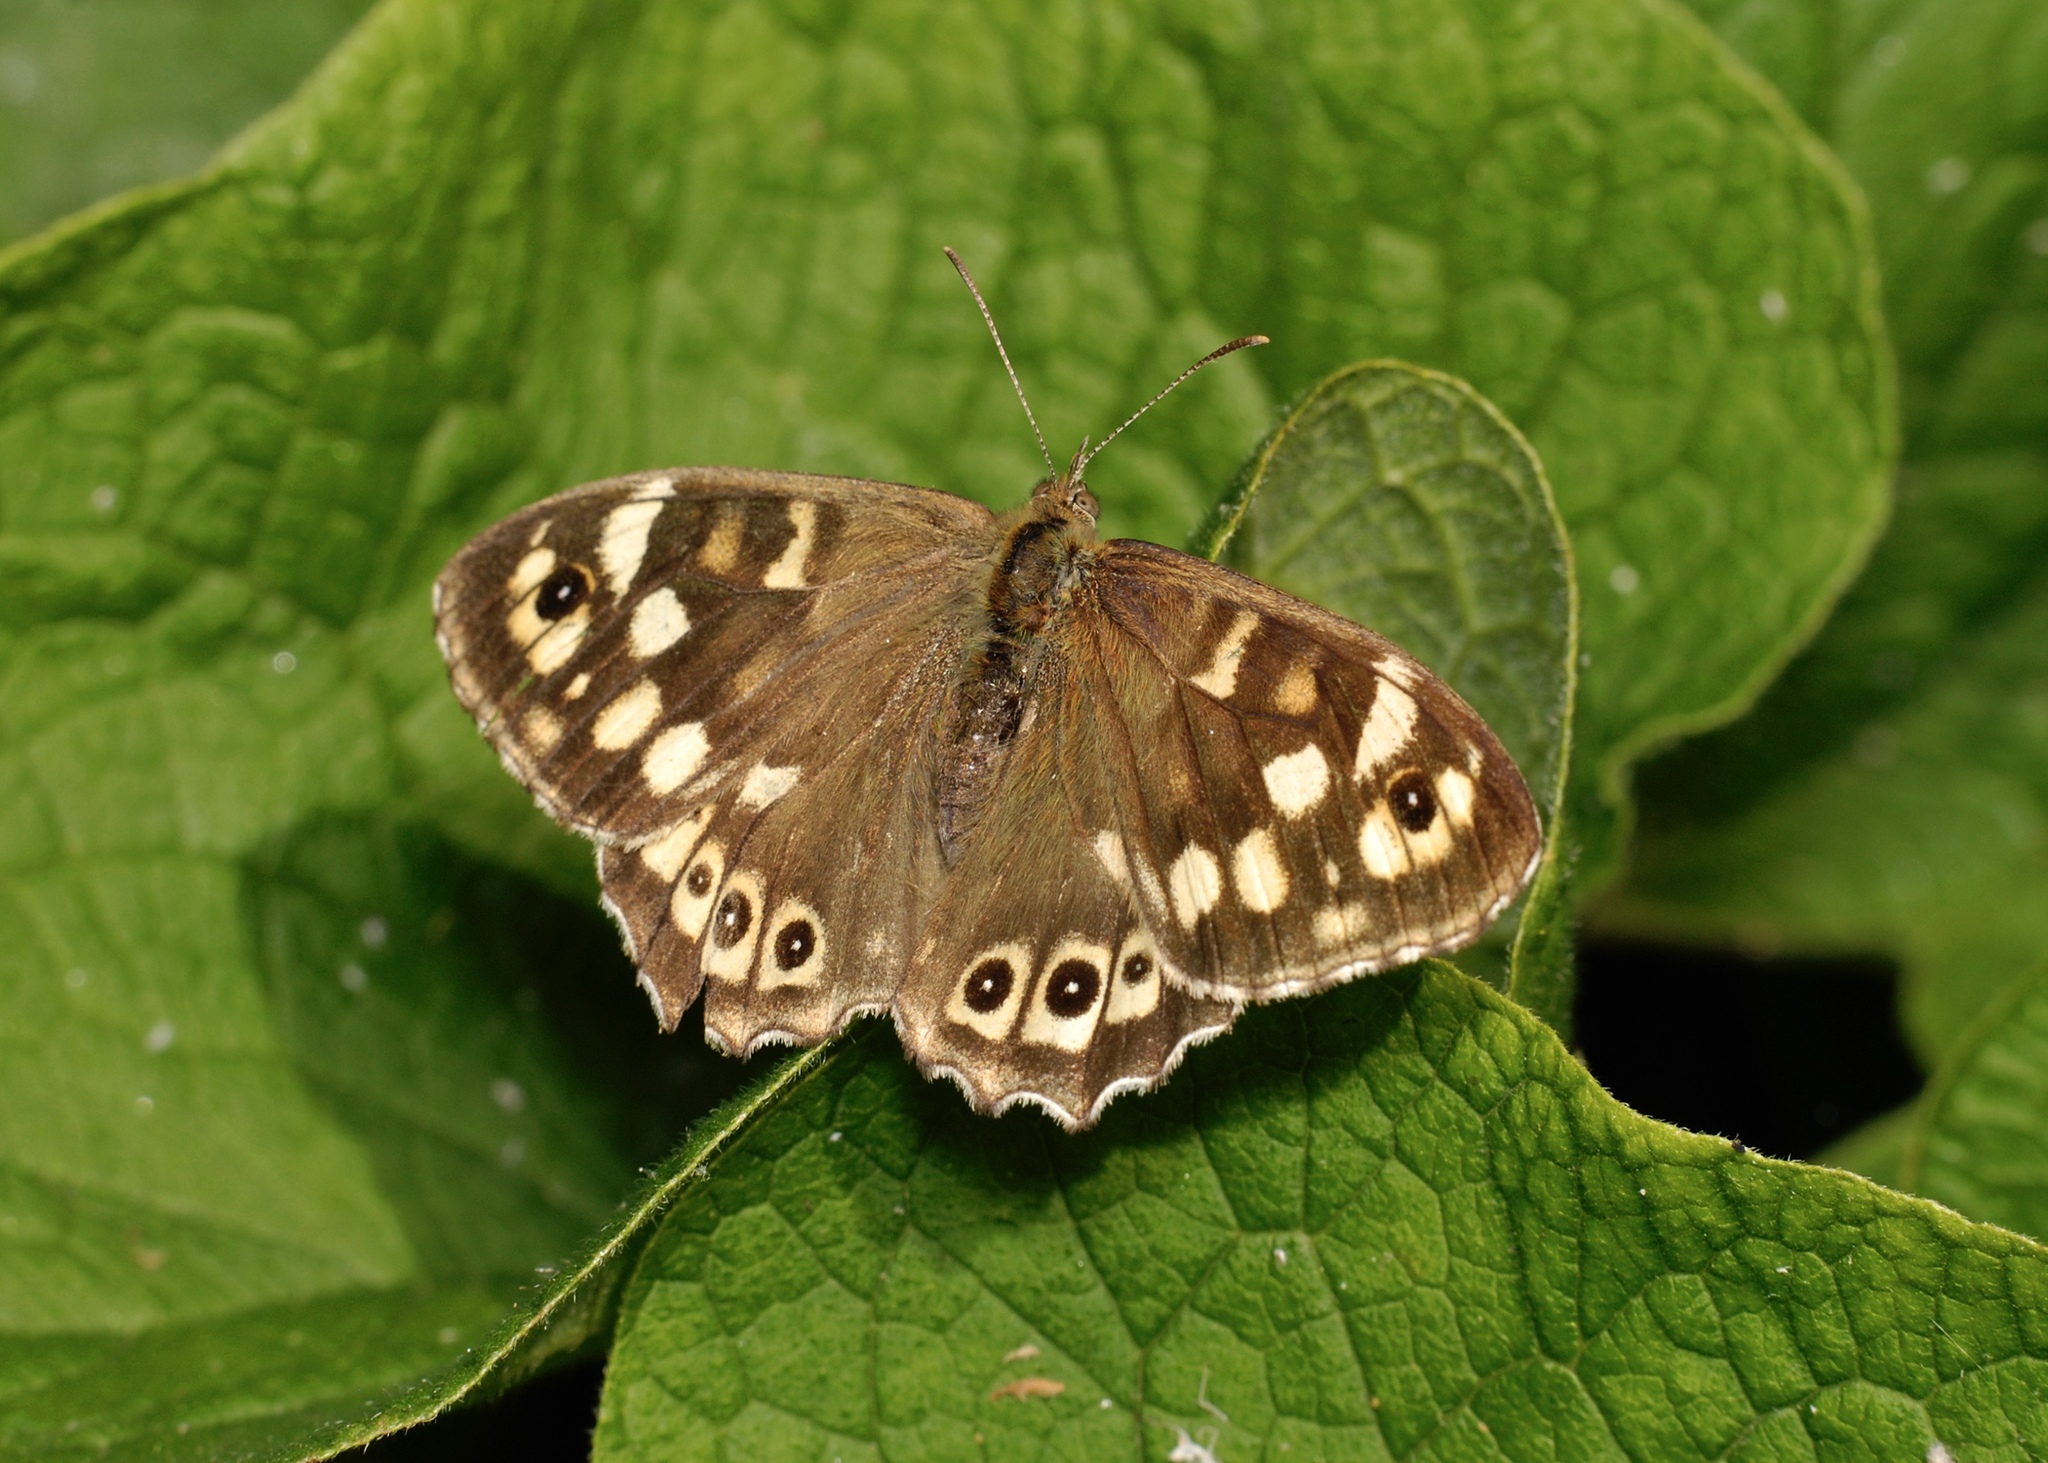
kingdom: Animalia
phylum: Arthropoda
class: Insecta
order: Lepidoptera
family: Nymphalidae
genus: Pararge
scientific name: Pararge aegeria
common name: Speckled wood
